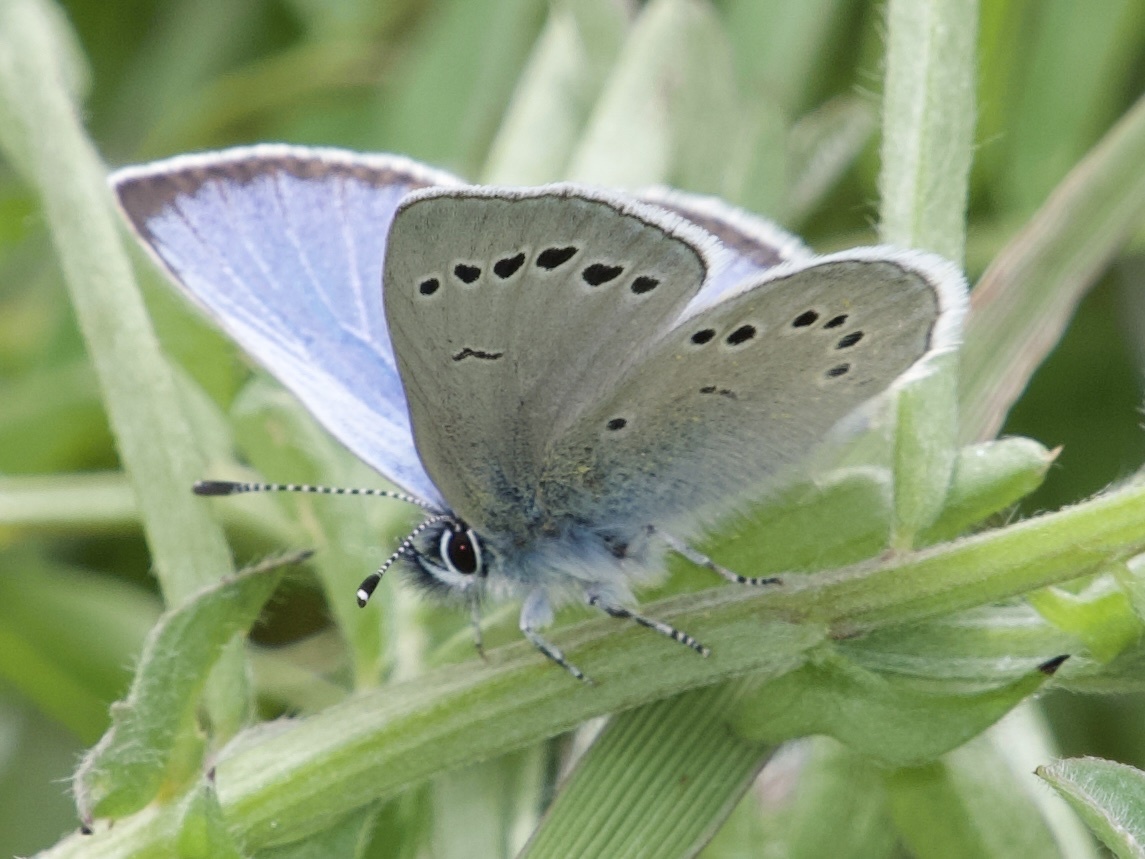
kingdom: Animalia
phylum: Arthropoda
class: Insecta
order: Lepidoptera
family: Lycaenidae
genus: Glaucopsyche
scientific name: Glaucopsyche lygdamus
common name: Silvery blue
